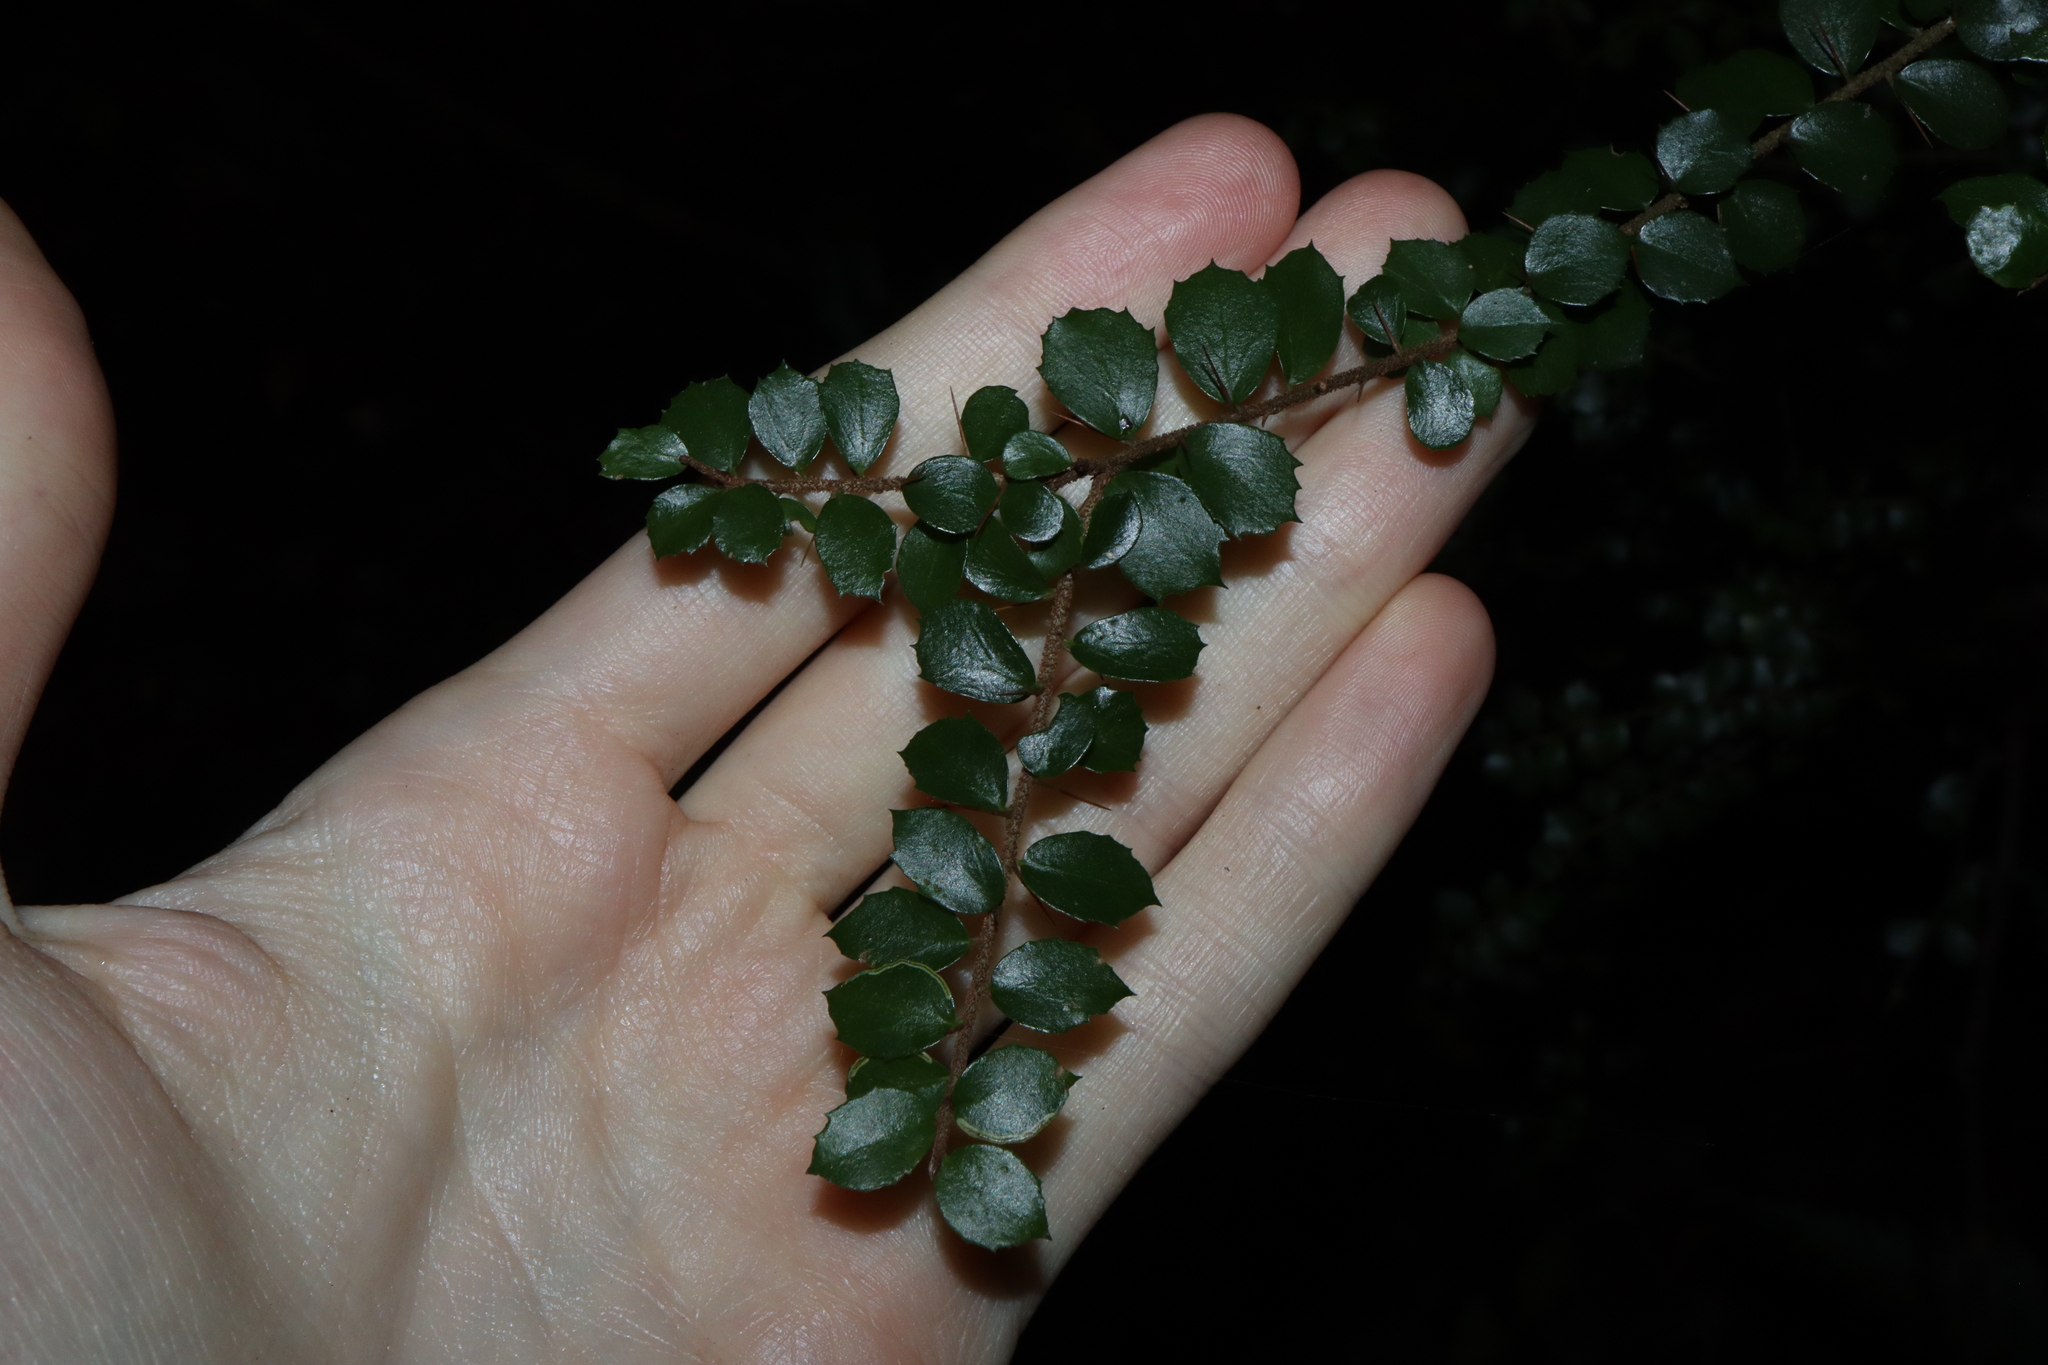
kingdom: Plantae
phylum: Tracheophyta
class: Magnoliopsida
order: Apiales
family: Pittosporaceae
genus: Pittosporum
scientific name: Pittosporum multiflorum
